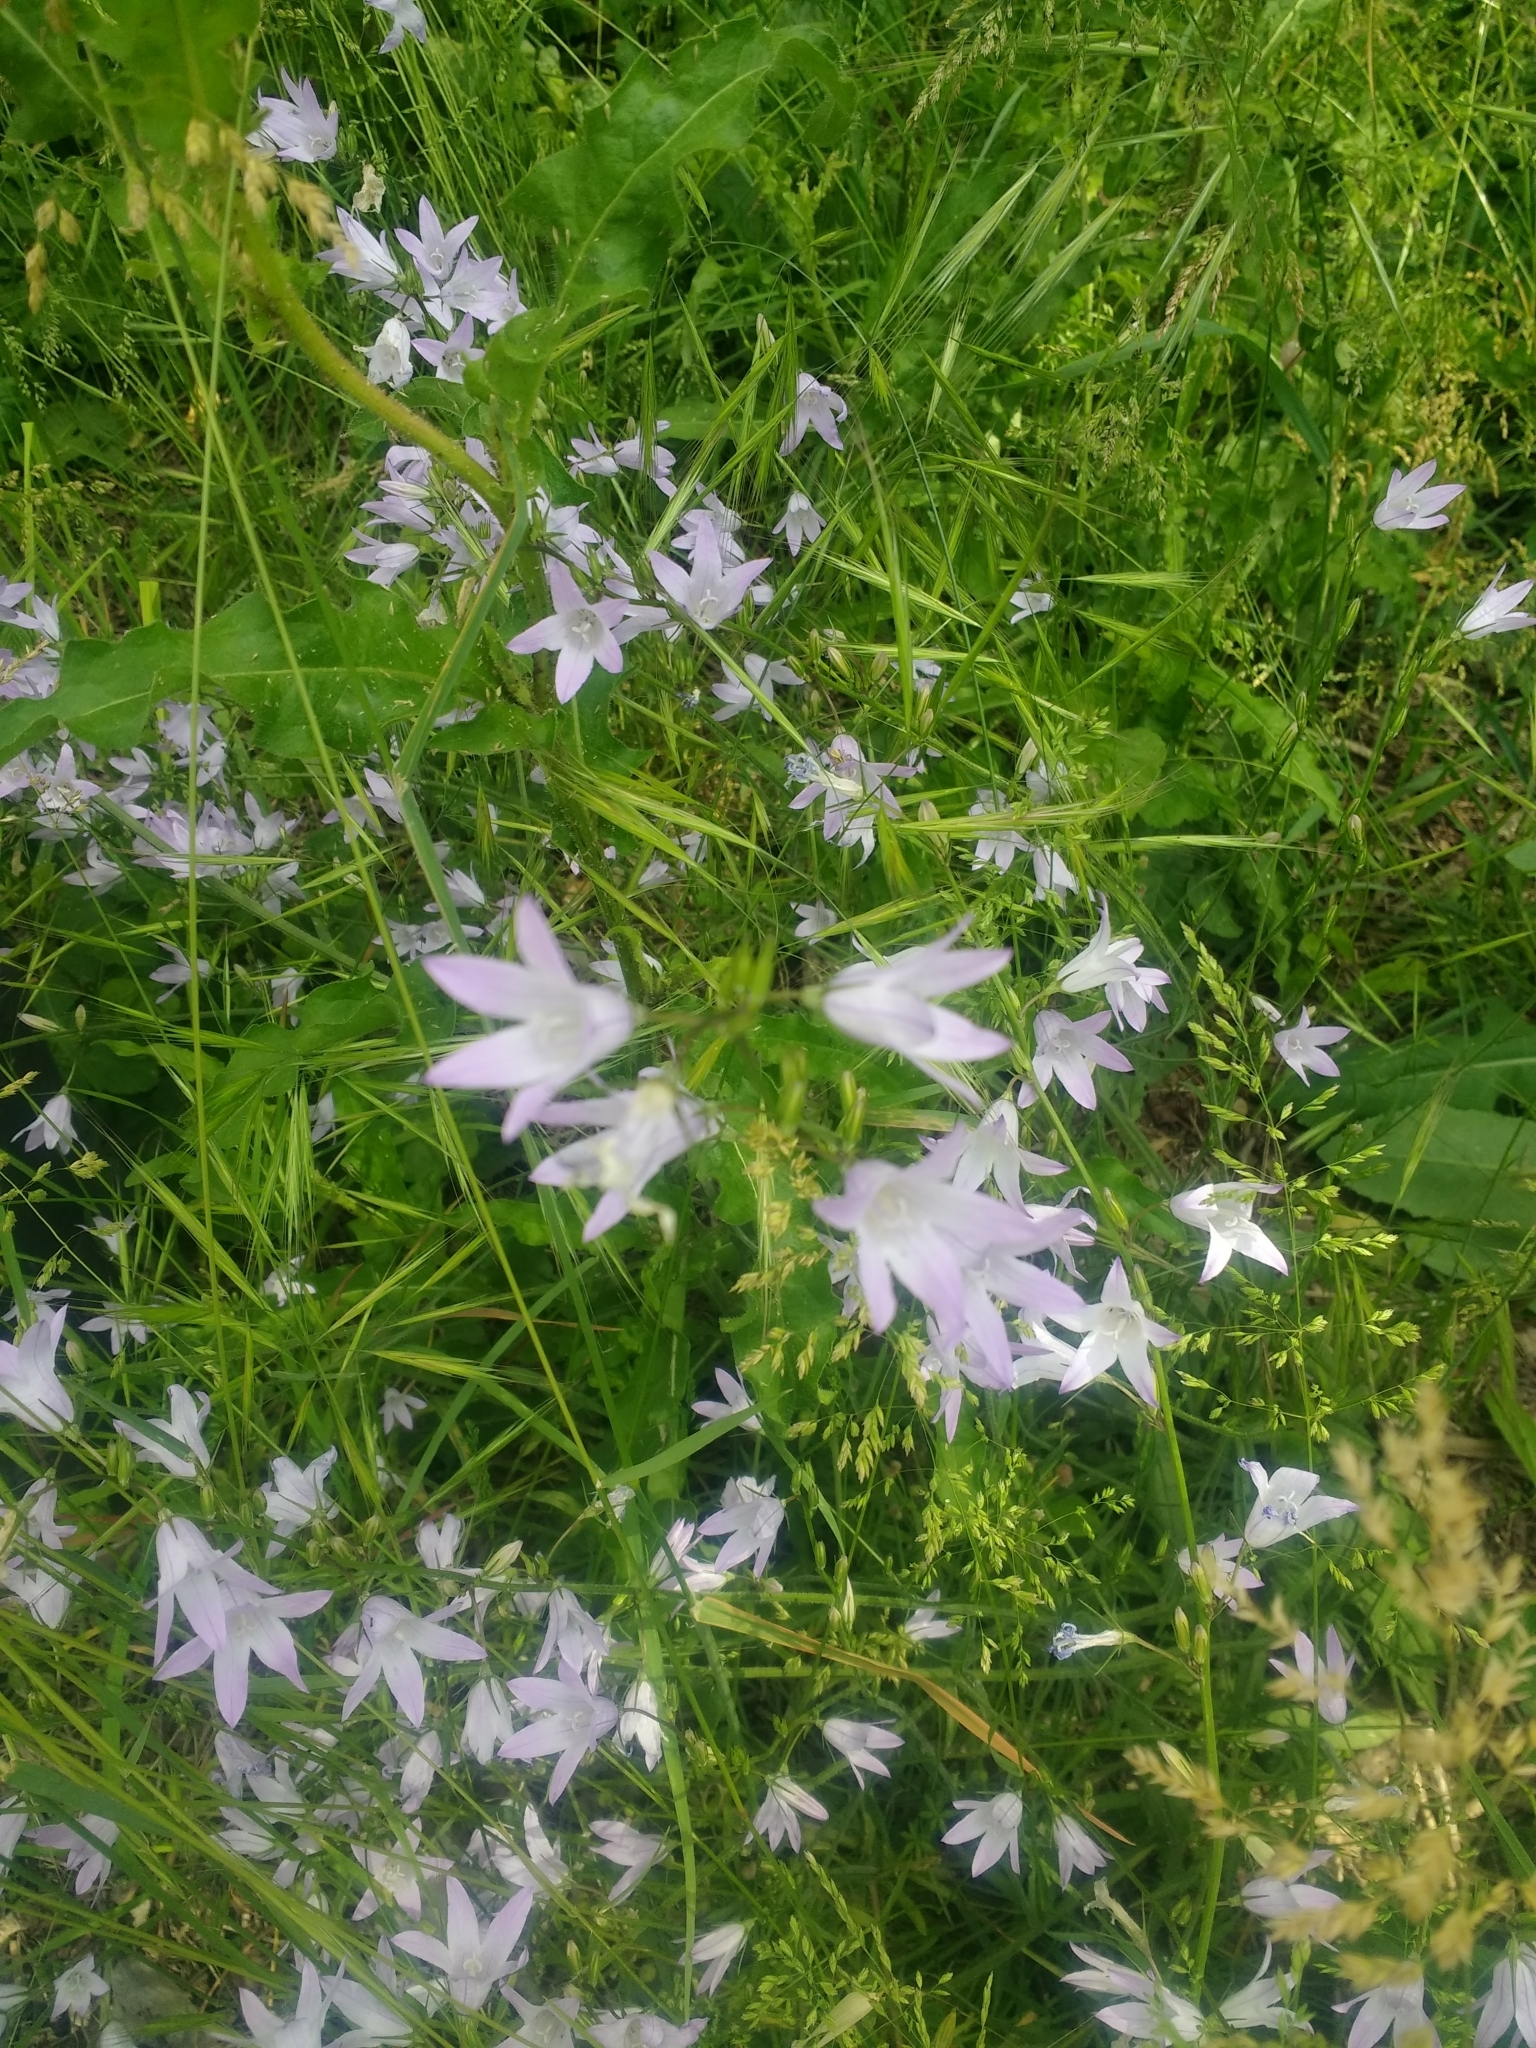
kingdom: Plantae
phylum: Tracheophyta
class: Magnoliopsida
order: Asterales
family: Campanulaceae
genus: Campanula
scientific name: Campanula rapunculus
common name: Rampion bellflower
